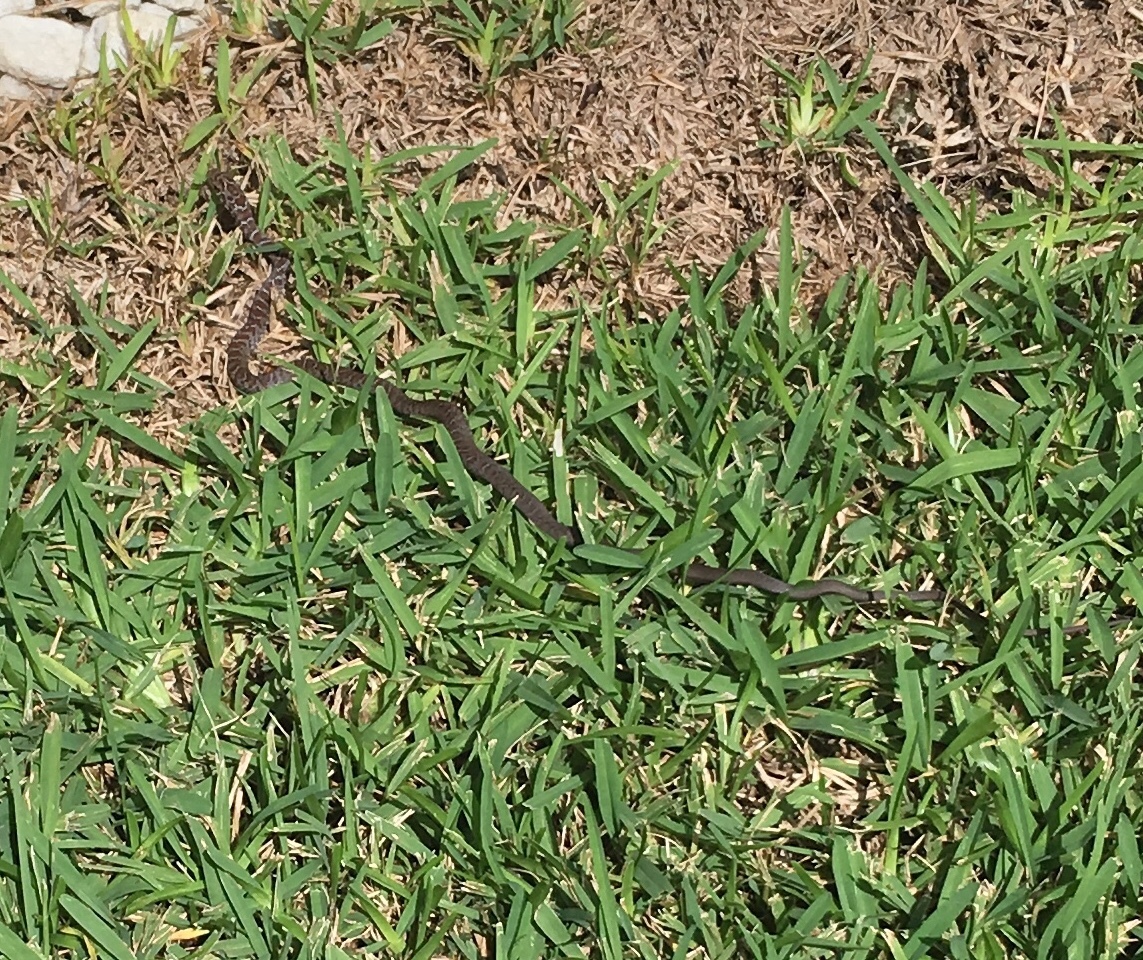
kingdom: Animalia
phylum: Chordata
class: Squamata
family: Colubridae
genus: Coluber
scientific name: Coluber constrictor
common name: Eastern racer
